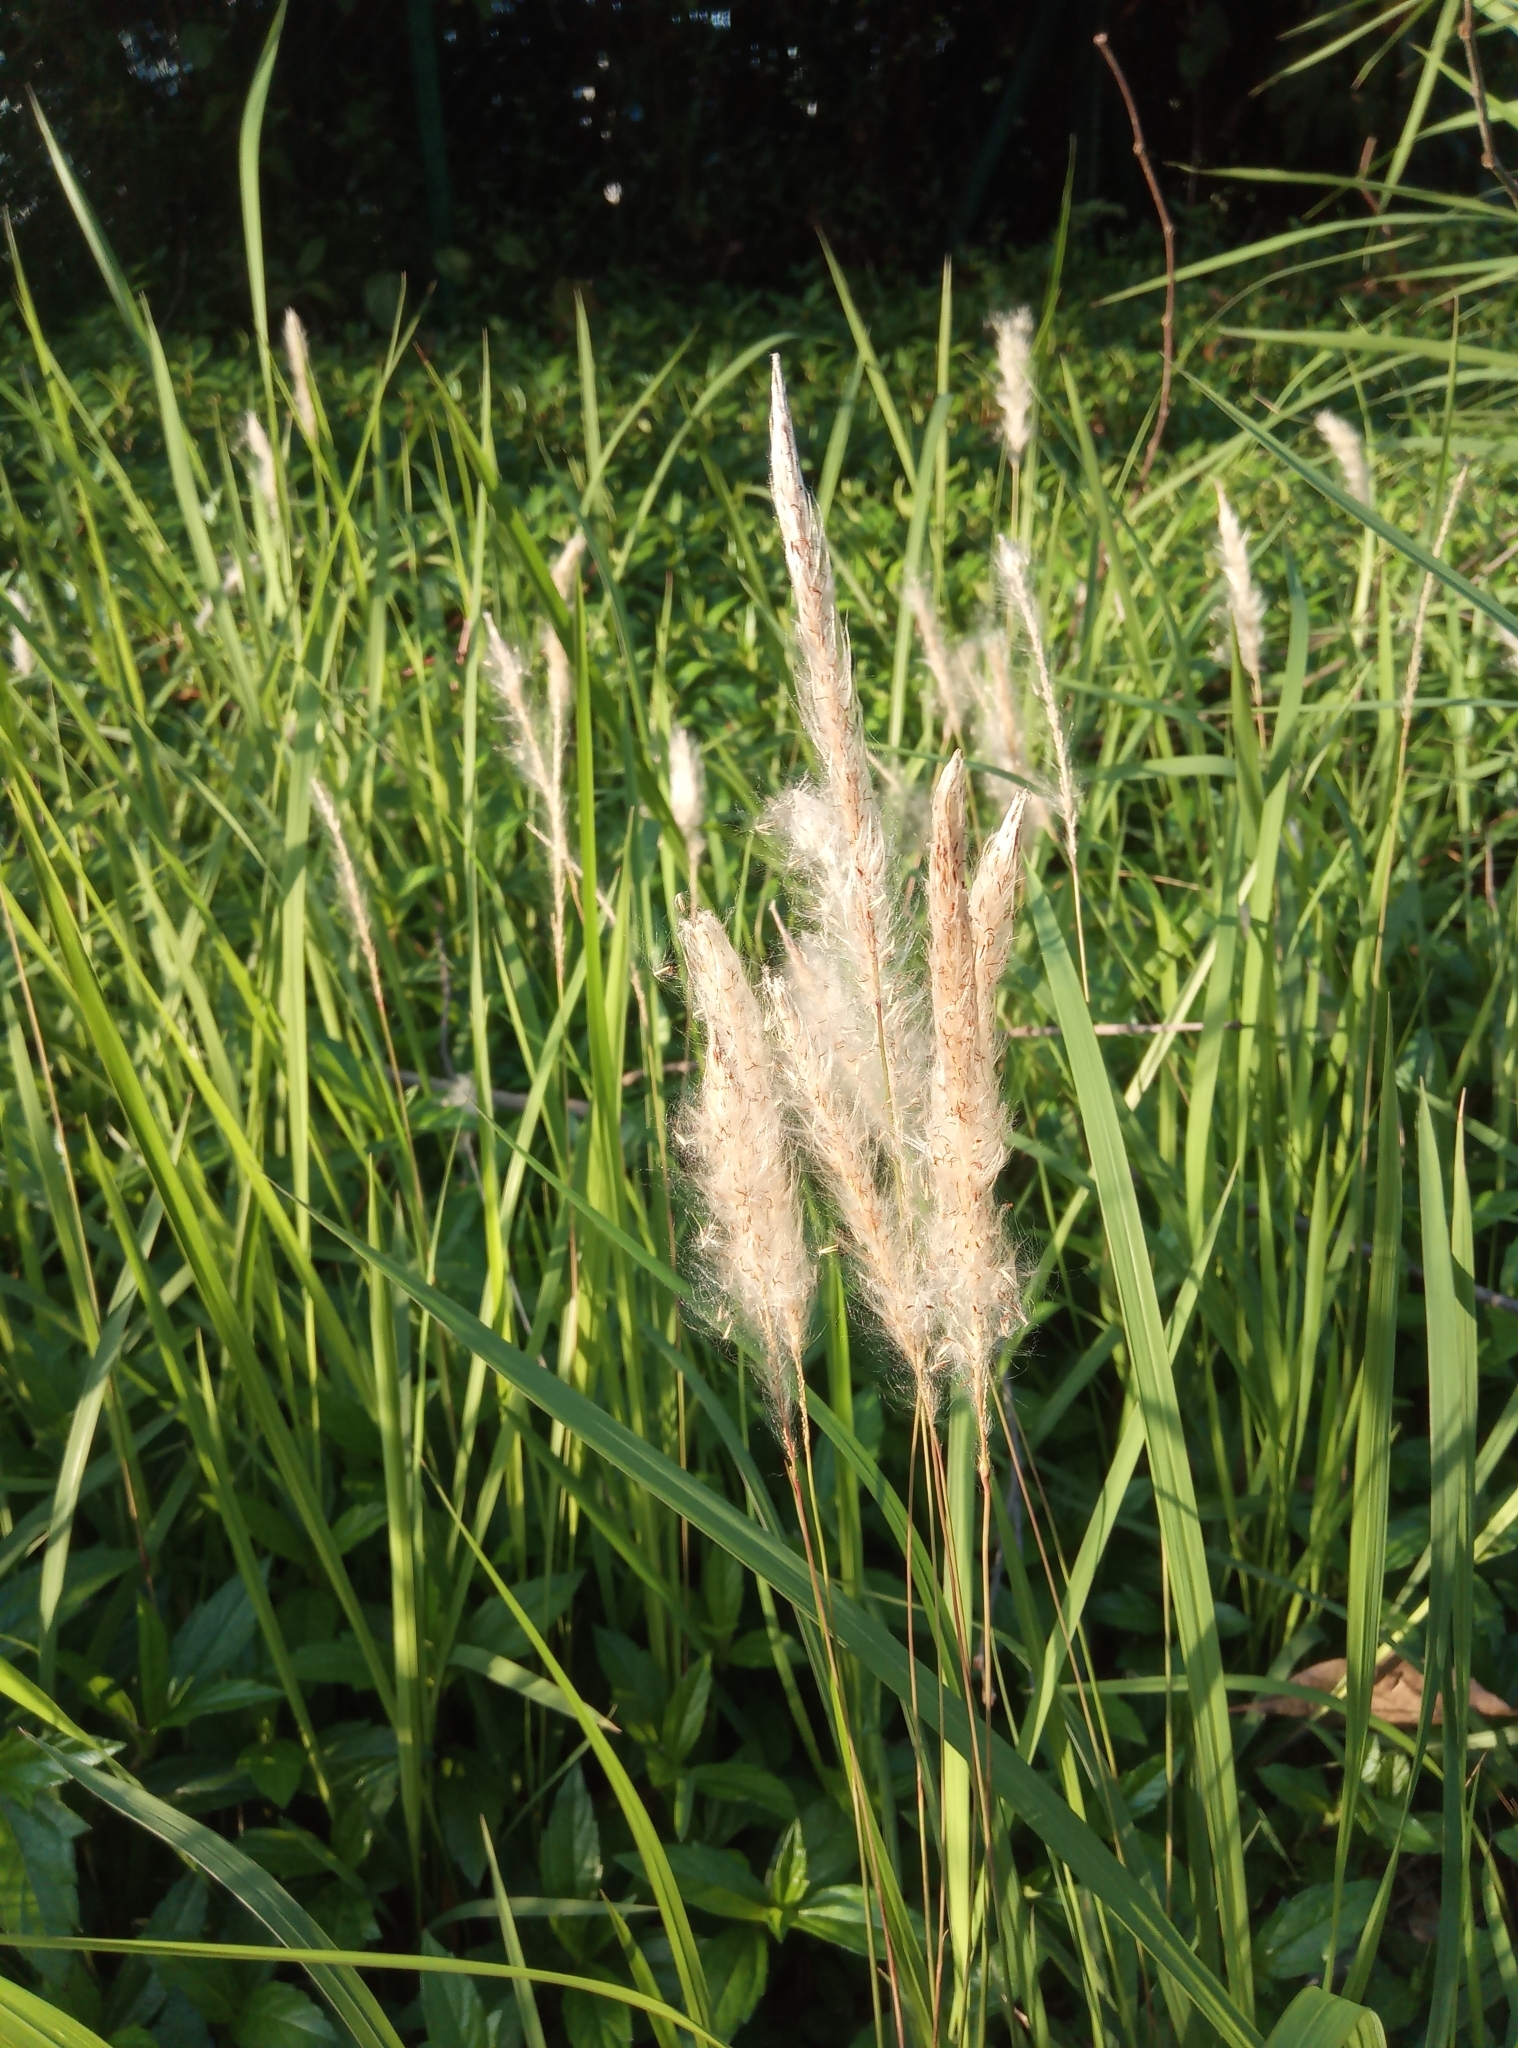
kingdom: Plantae
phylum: Tracheophyta
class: Liliopsida
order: Poales
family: Poaceae
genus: Imperata
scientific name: Imperata cylindrica
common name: Cogongrass
